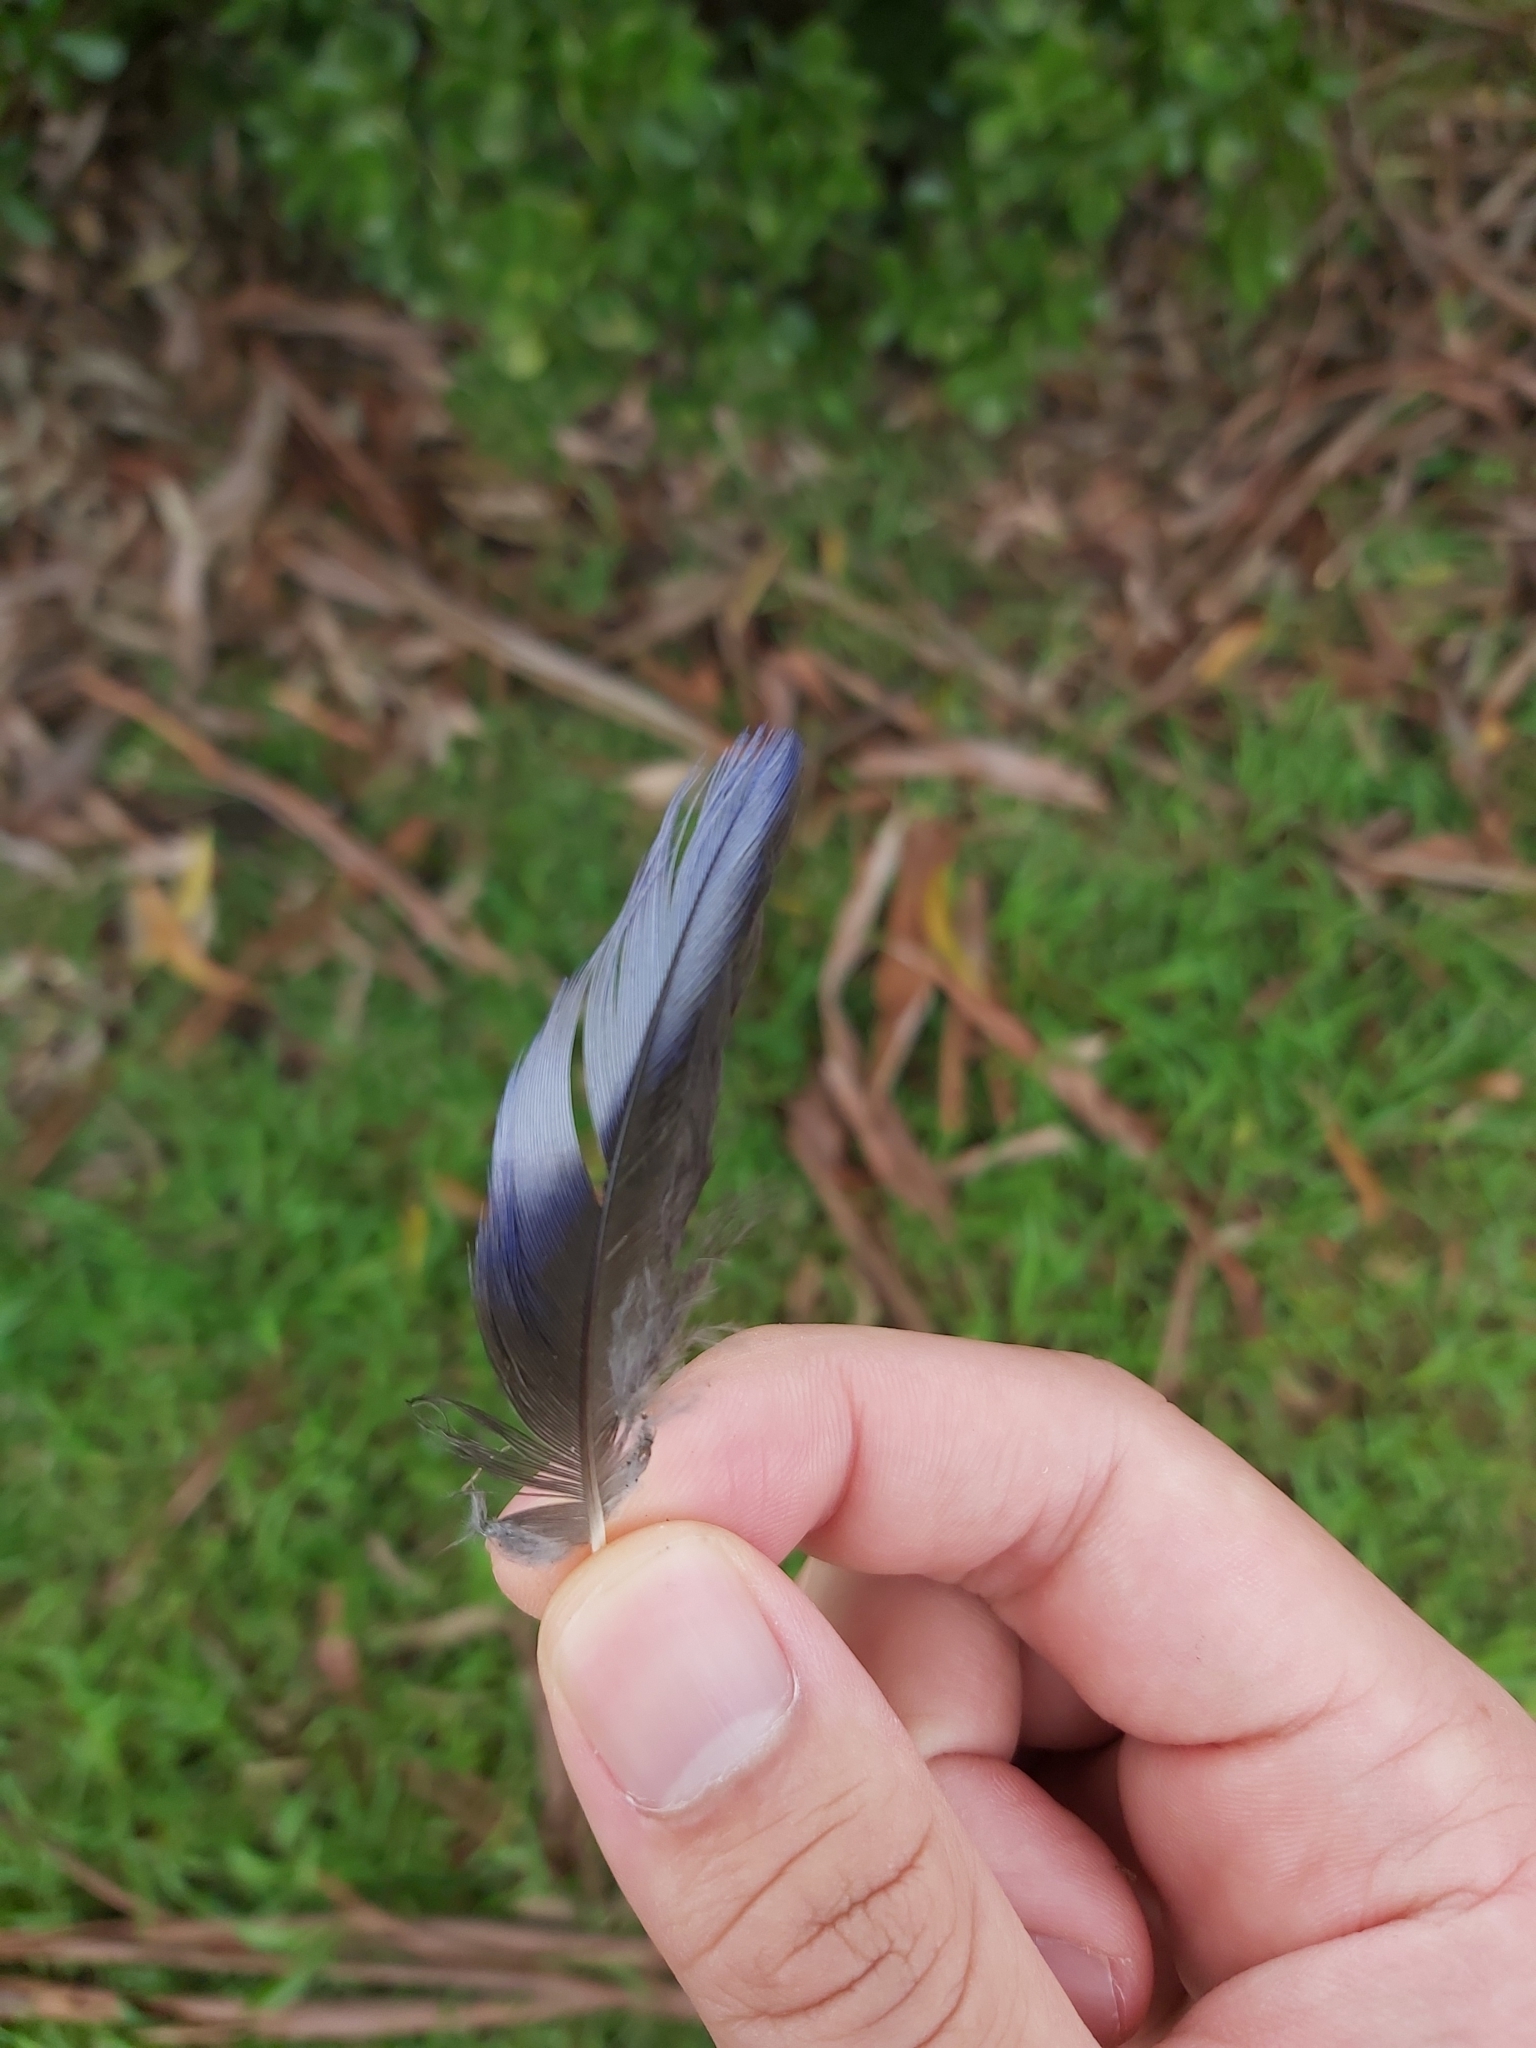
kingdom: Animalia
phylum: Chordata
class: Aves
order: Psittaciformes
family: Psittacidae
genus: Platycercus
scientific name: Platycercus elegans
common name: Crimson rosella
